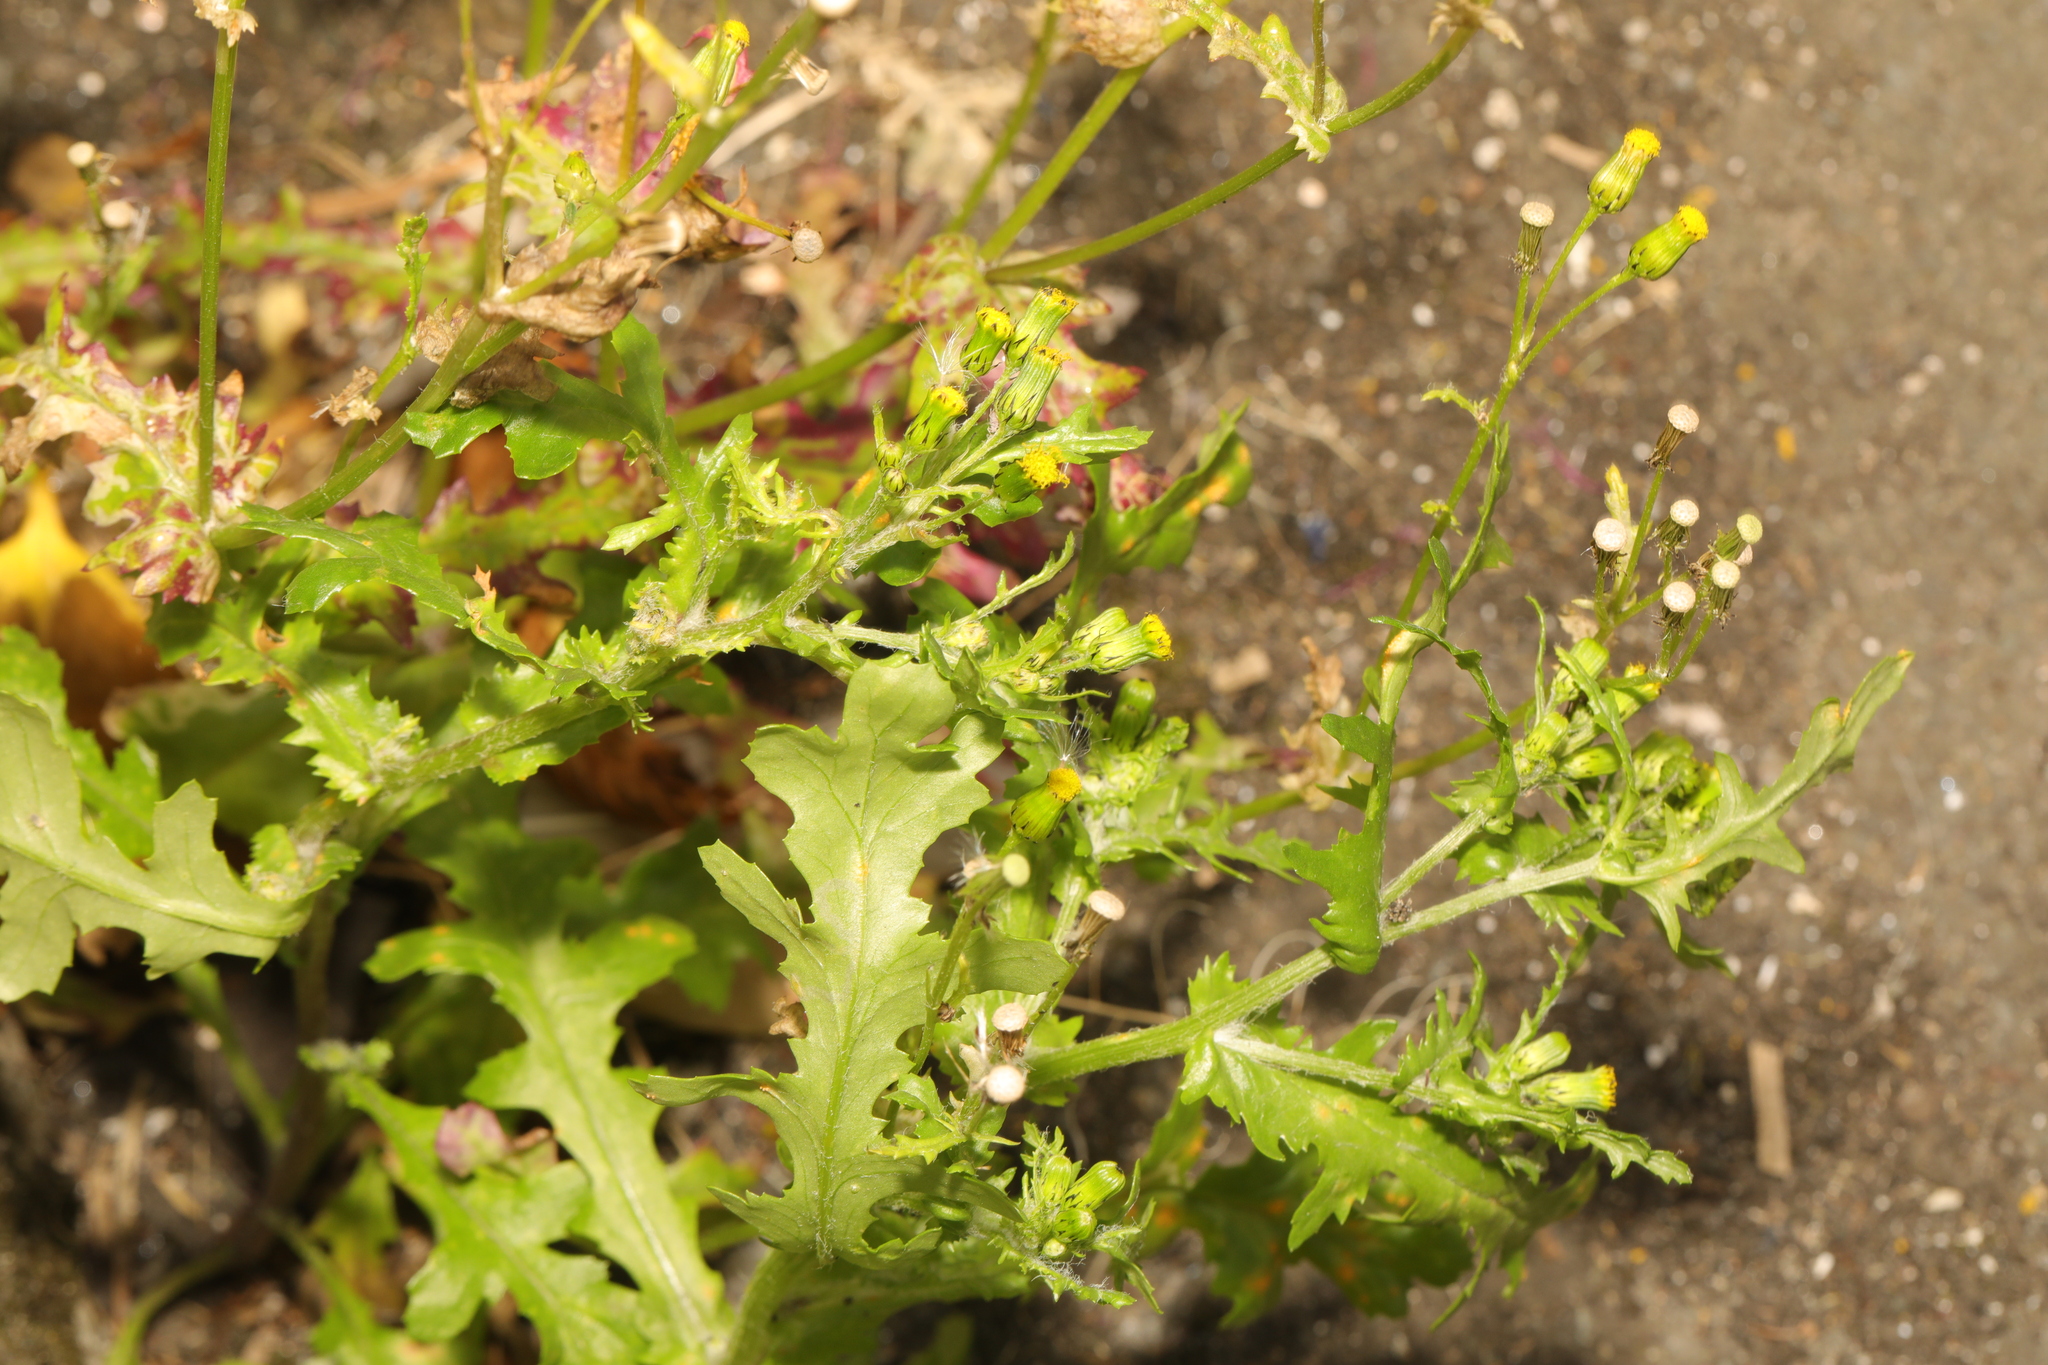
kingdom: Plantae
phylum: Tracheophyta
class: Magnoliopsida
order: Asterales
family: Asteraceae
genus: Senecio
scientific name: Senecio vulgaris
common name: Old-man-in-the-spring
